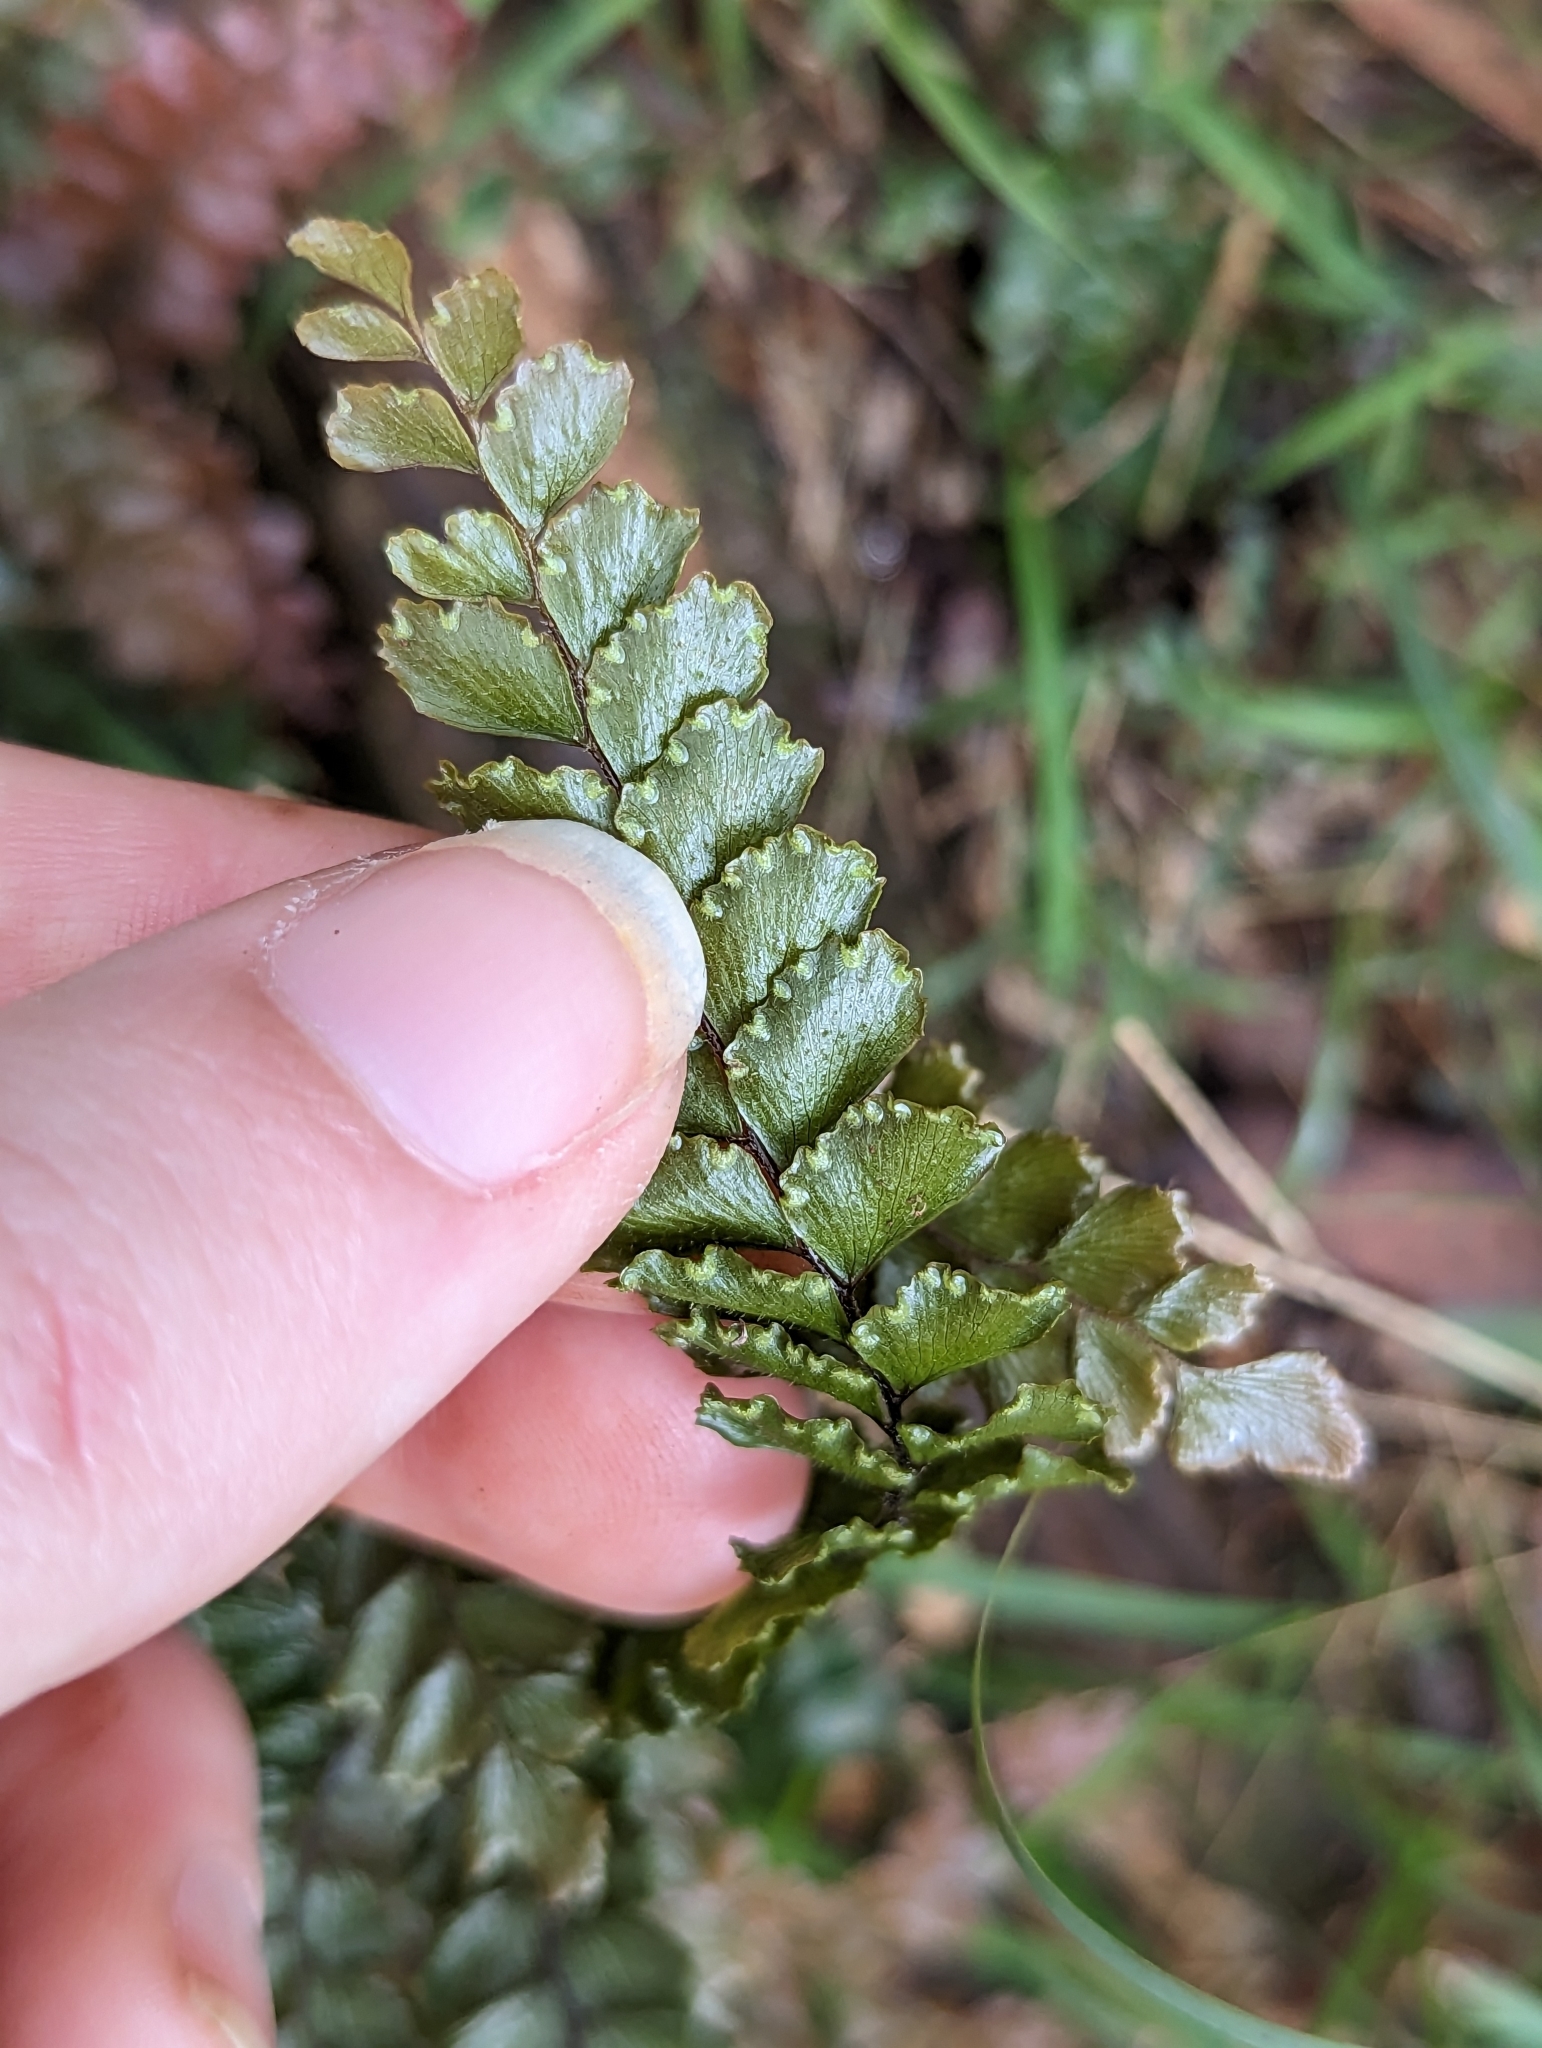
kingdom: Plantae
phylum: Tracheophyta
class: Polypodiopsida
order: Polypodiales
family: Pteridaceae
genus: Adiantum
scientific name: Adiantum hispidulum
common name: Rough maidenhair
